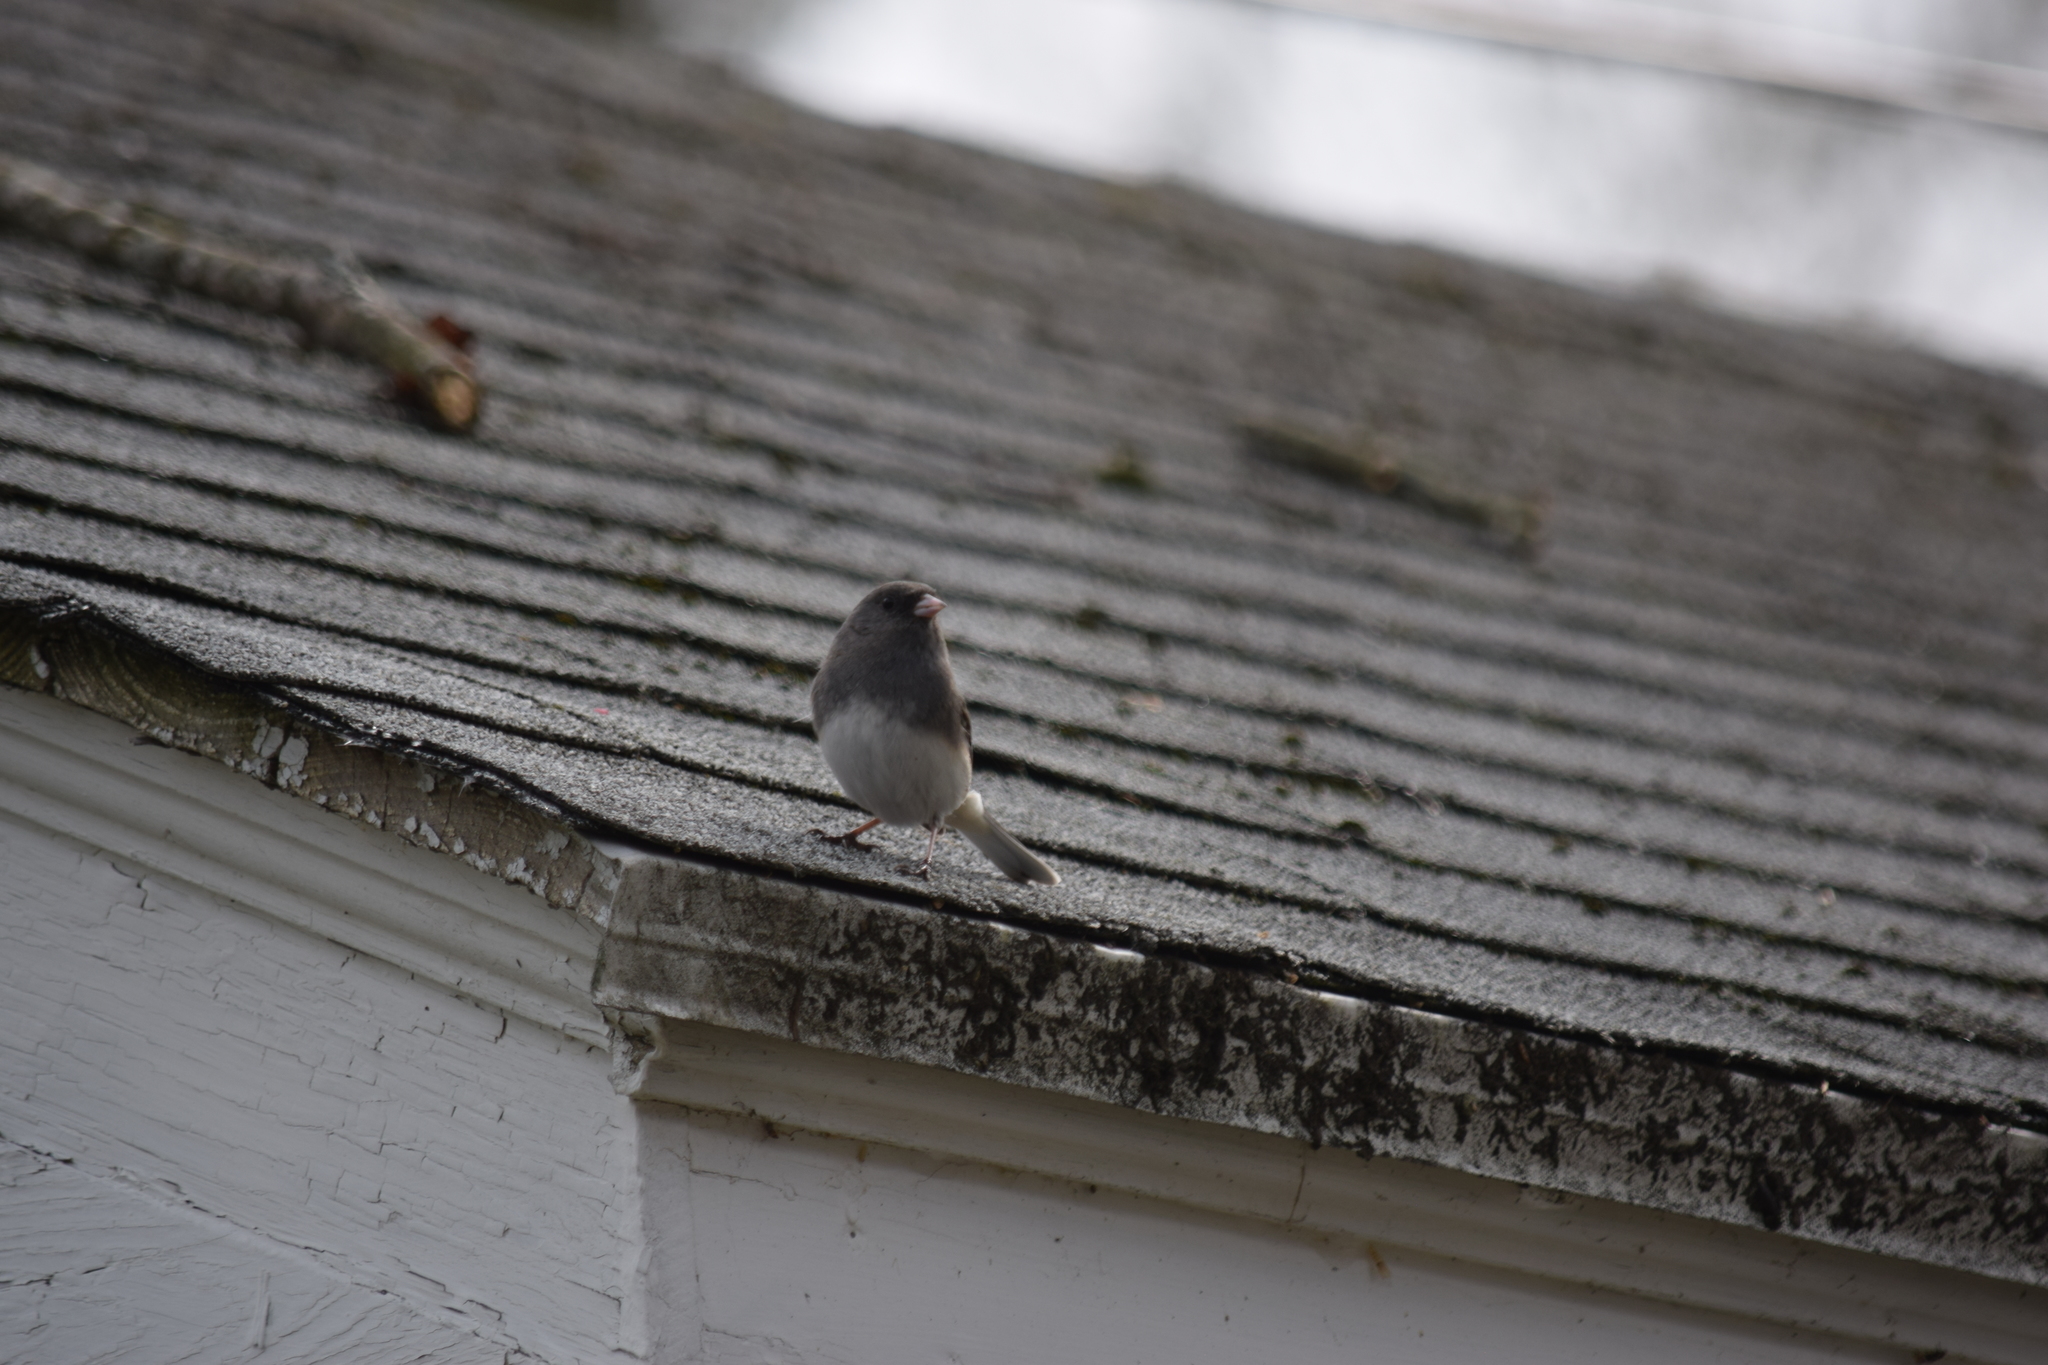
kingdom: Animalia
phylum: Chordata
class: Aves
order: Passeriformes
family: Passerellidae
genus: Junco
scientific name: Junco hyemalis
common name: Dark-eyed junco
